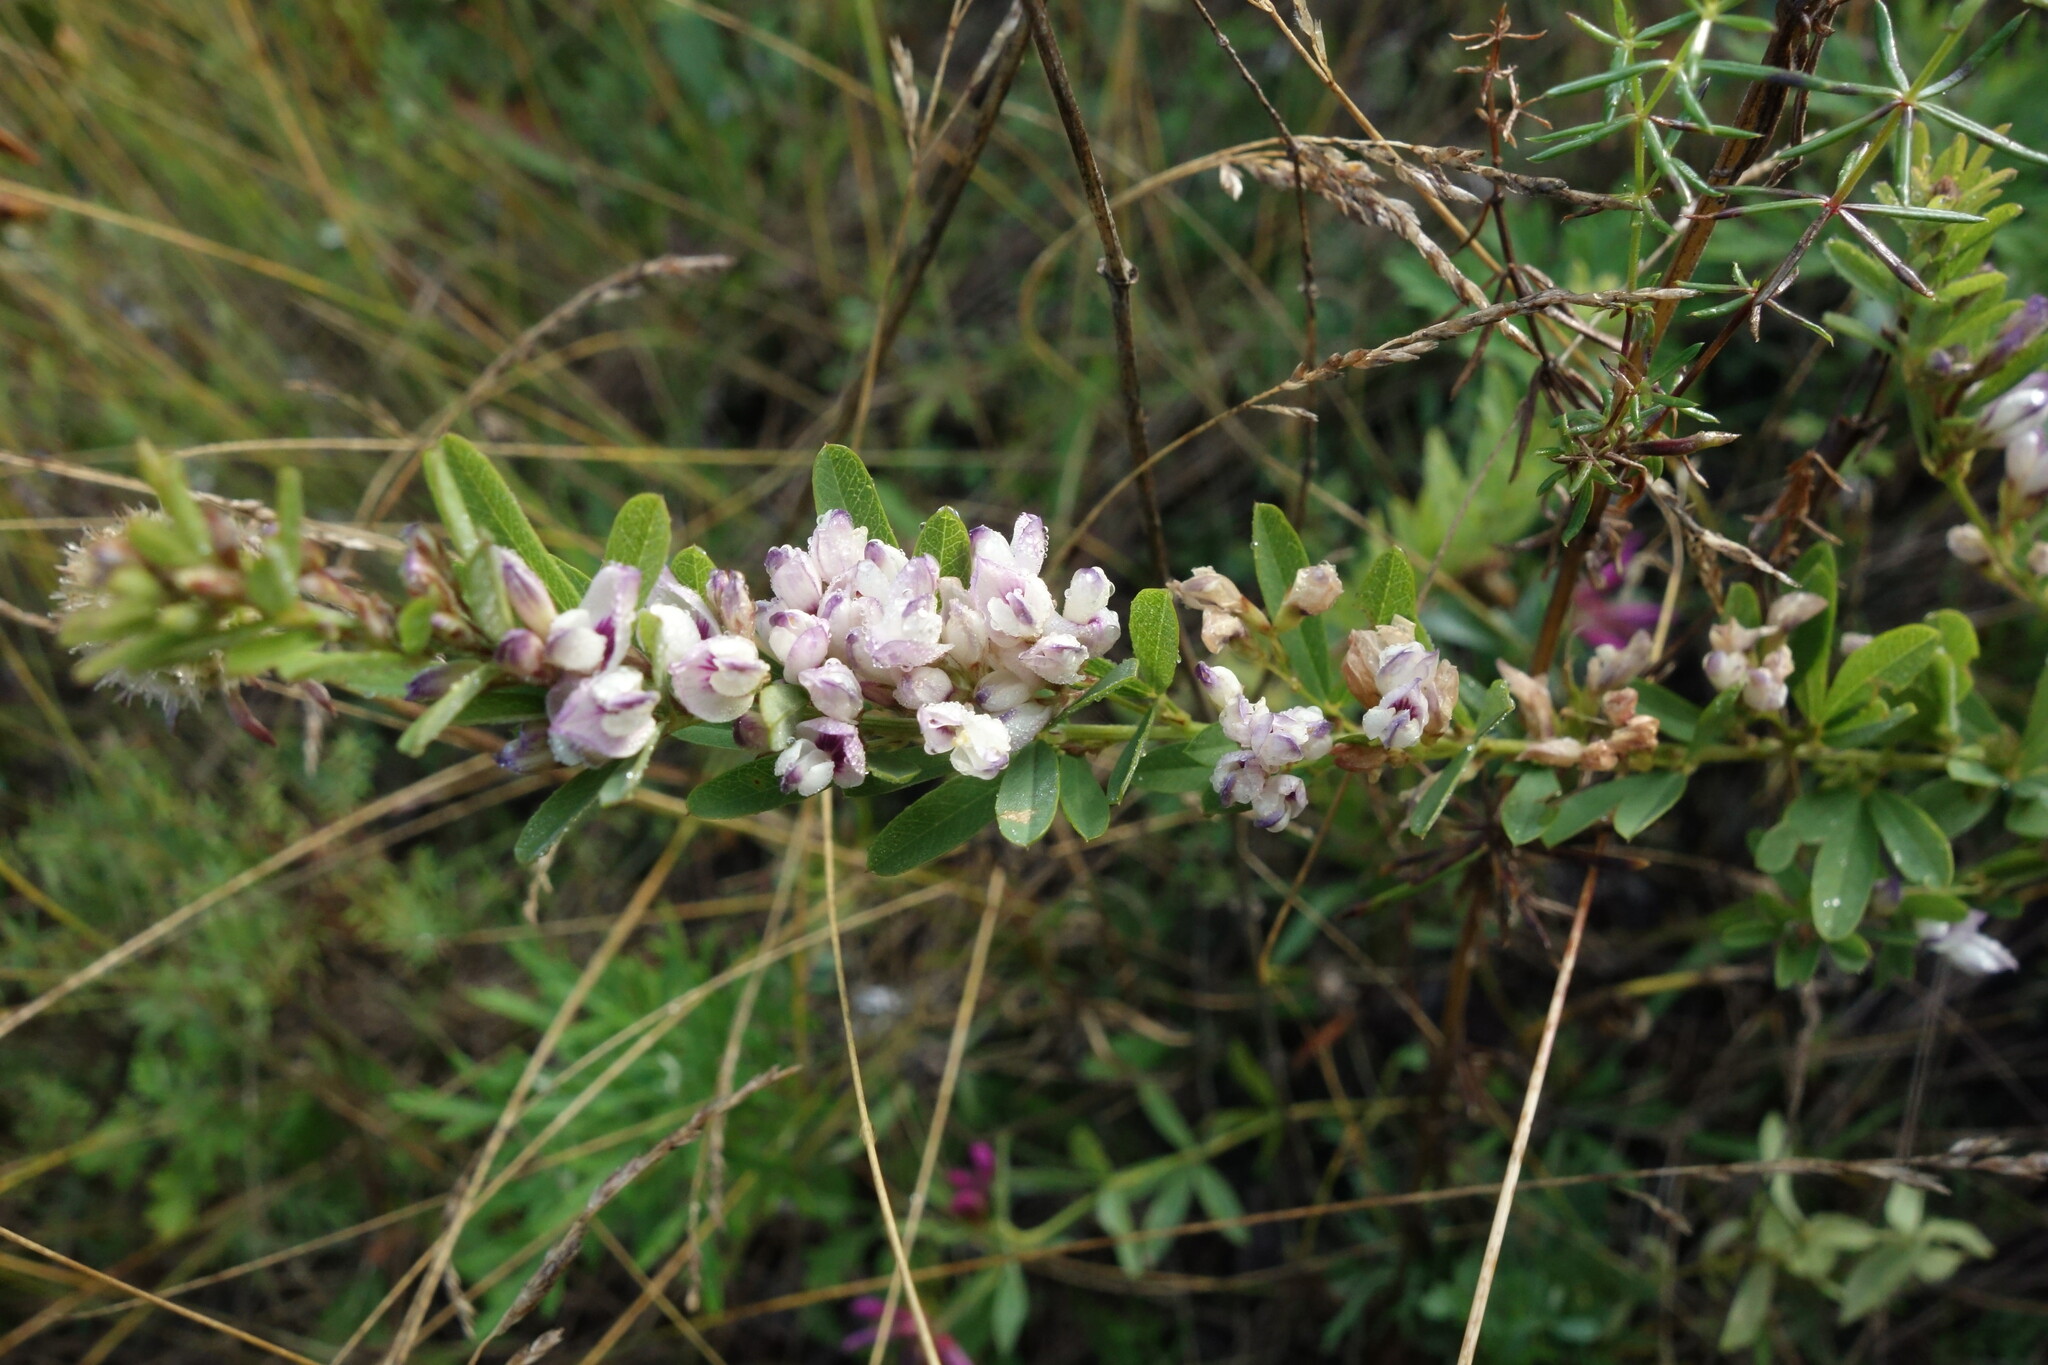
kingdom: Plantae
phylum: Tracheophyta
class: Magnoliopsida
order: Fabales
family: Fabaceae
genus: Lespedeza
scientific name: Lespedeza juncea
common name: Siberian lespedeza
